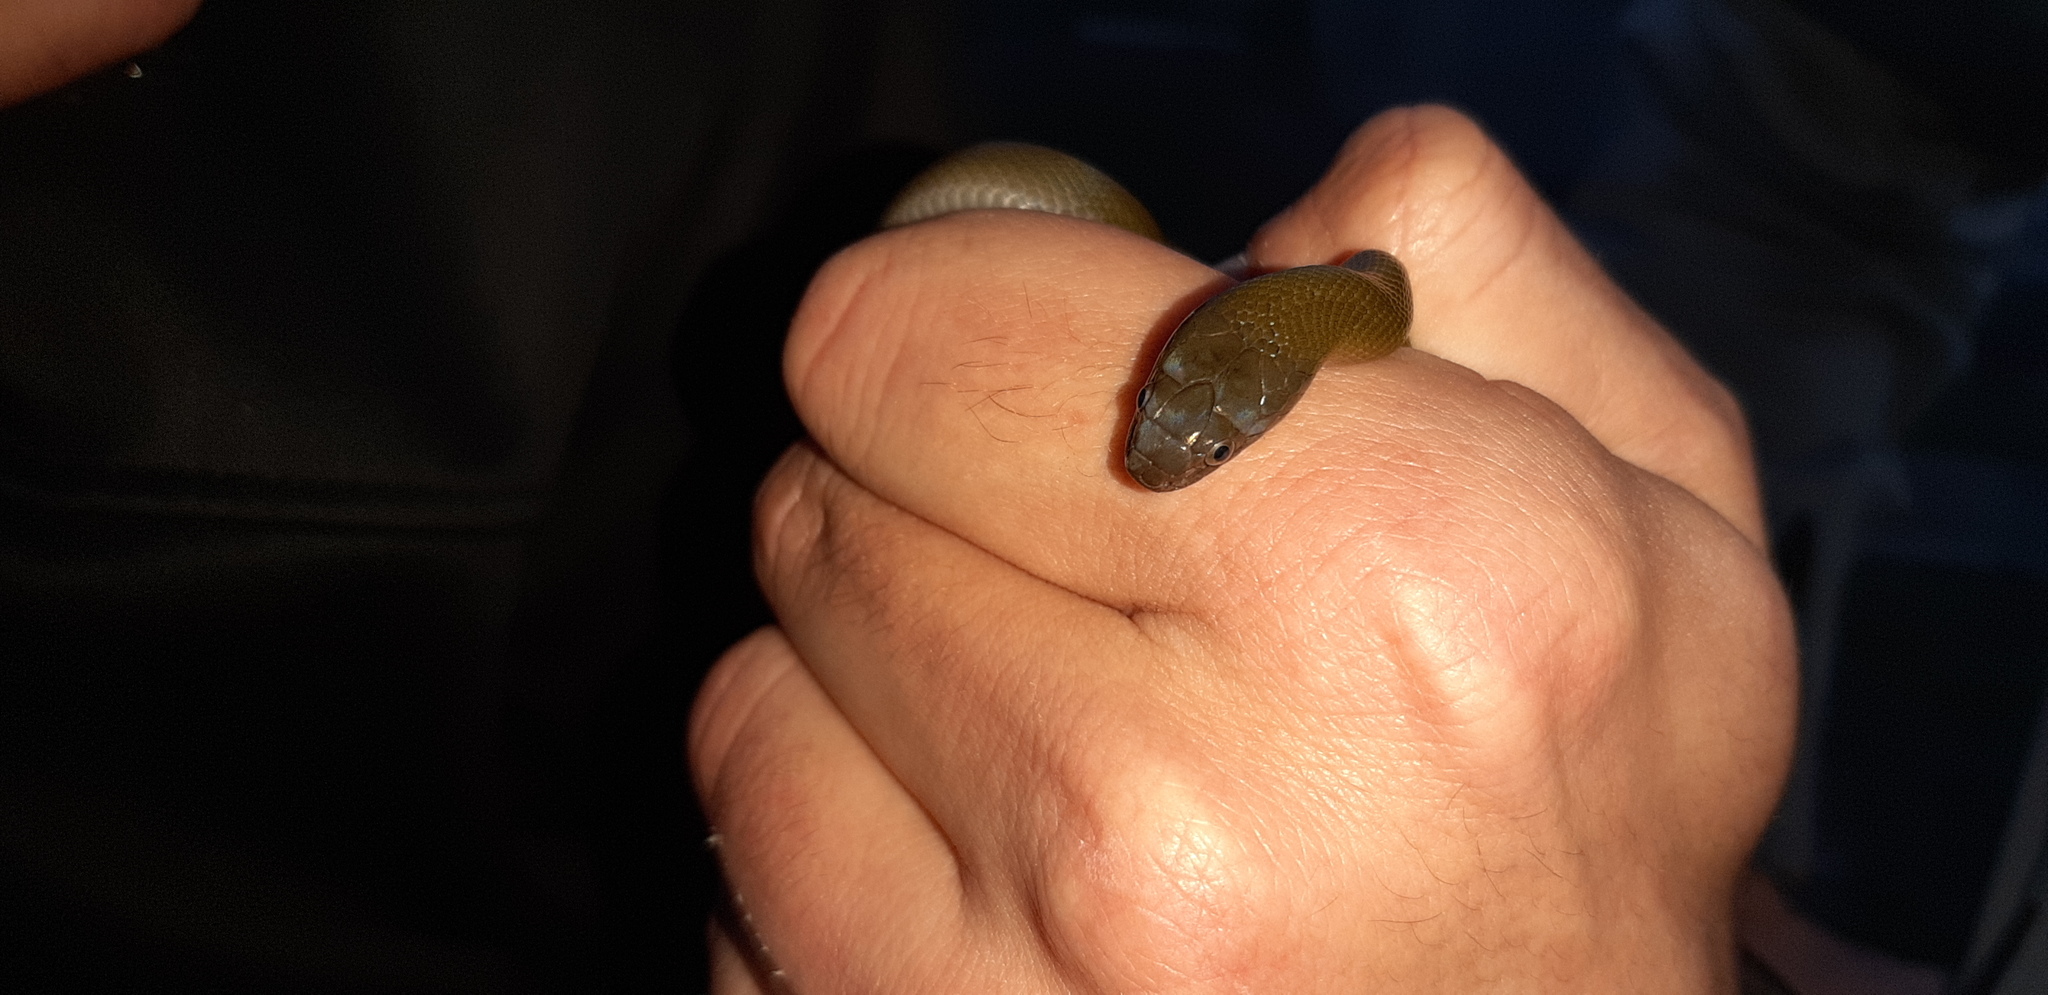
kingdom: Animalia
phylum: Chordata
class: Squamata
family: Lamprophiidae
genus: Lycodonomorphus
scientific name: Lycodonomorphus inornatus
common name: Black house snake
